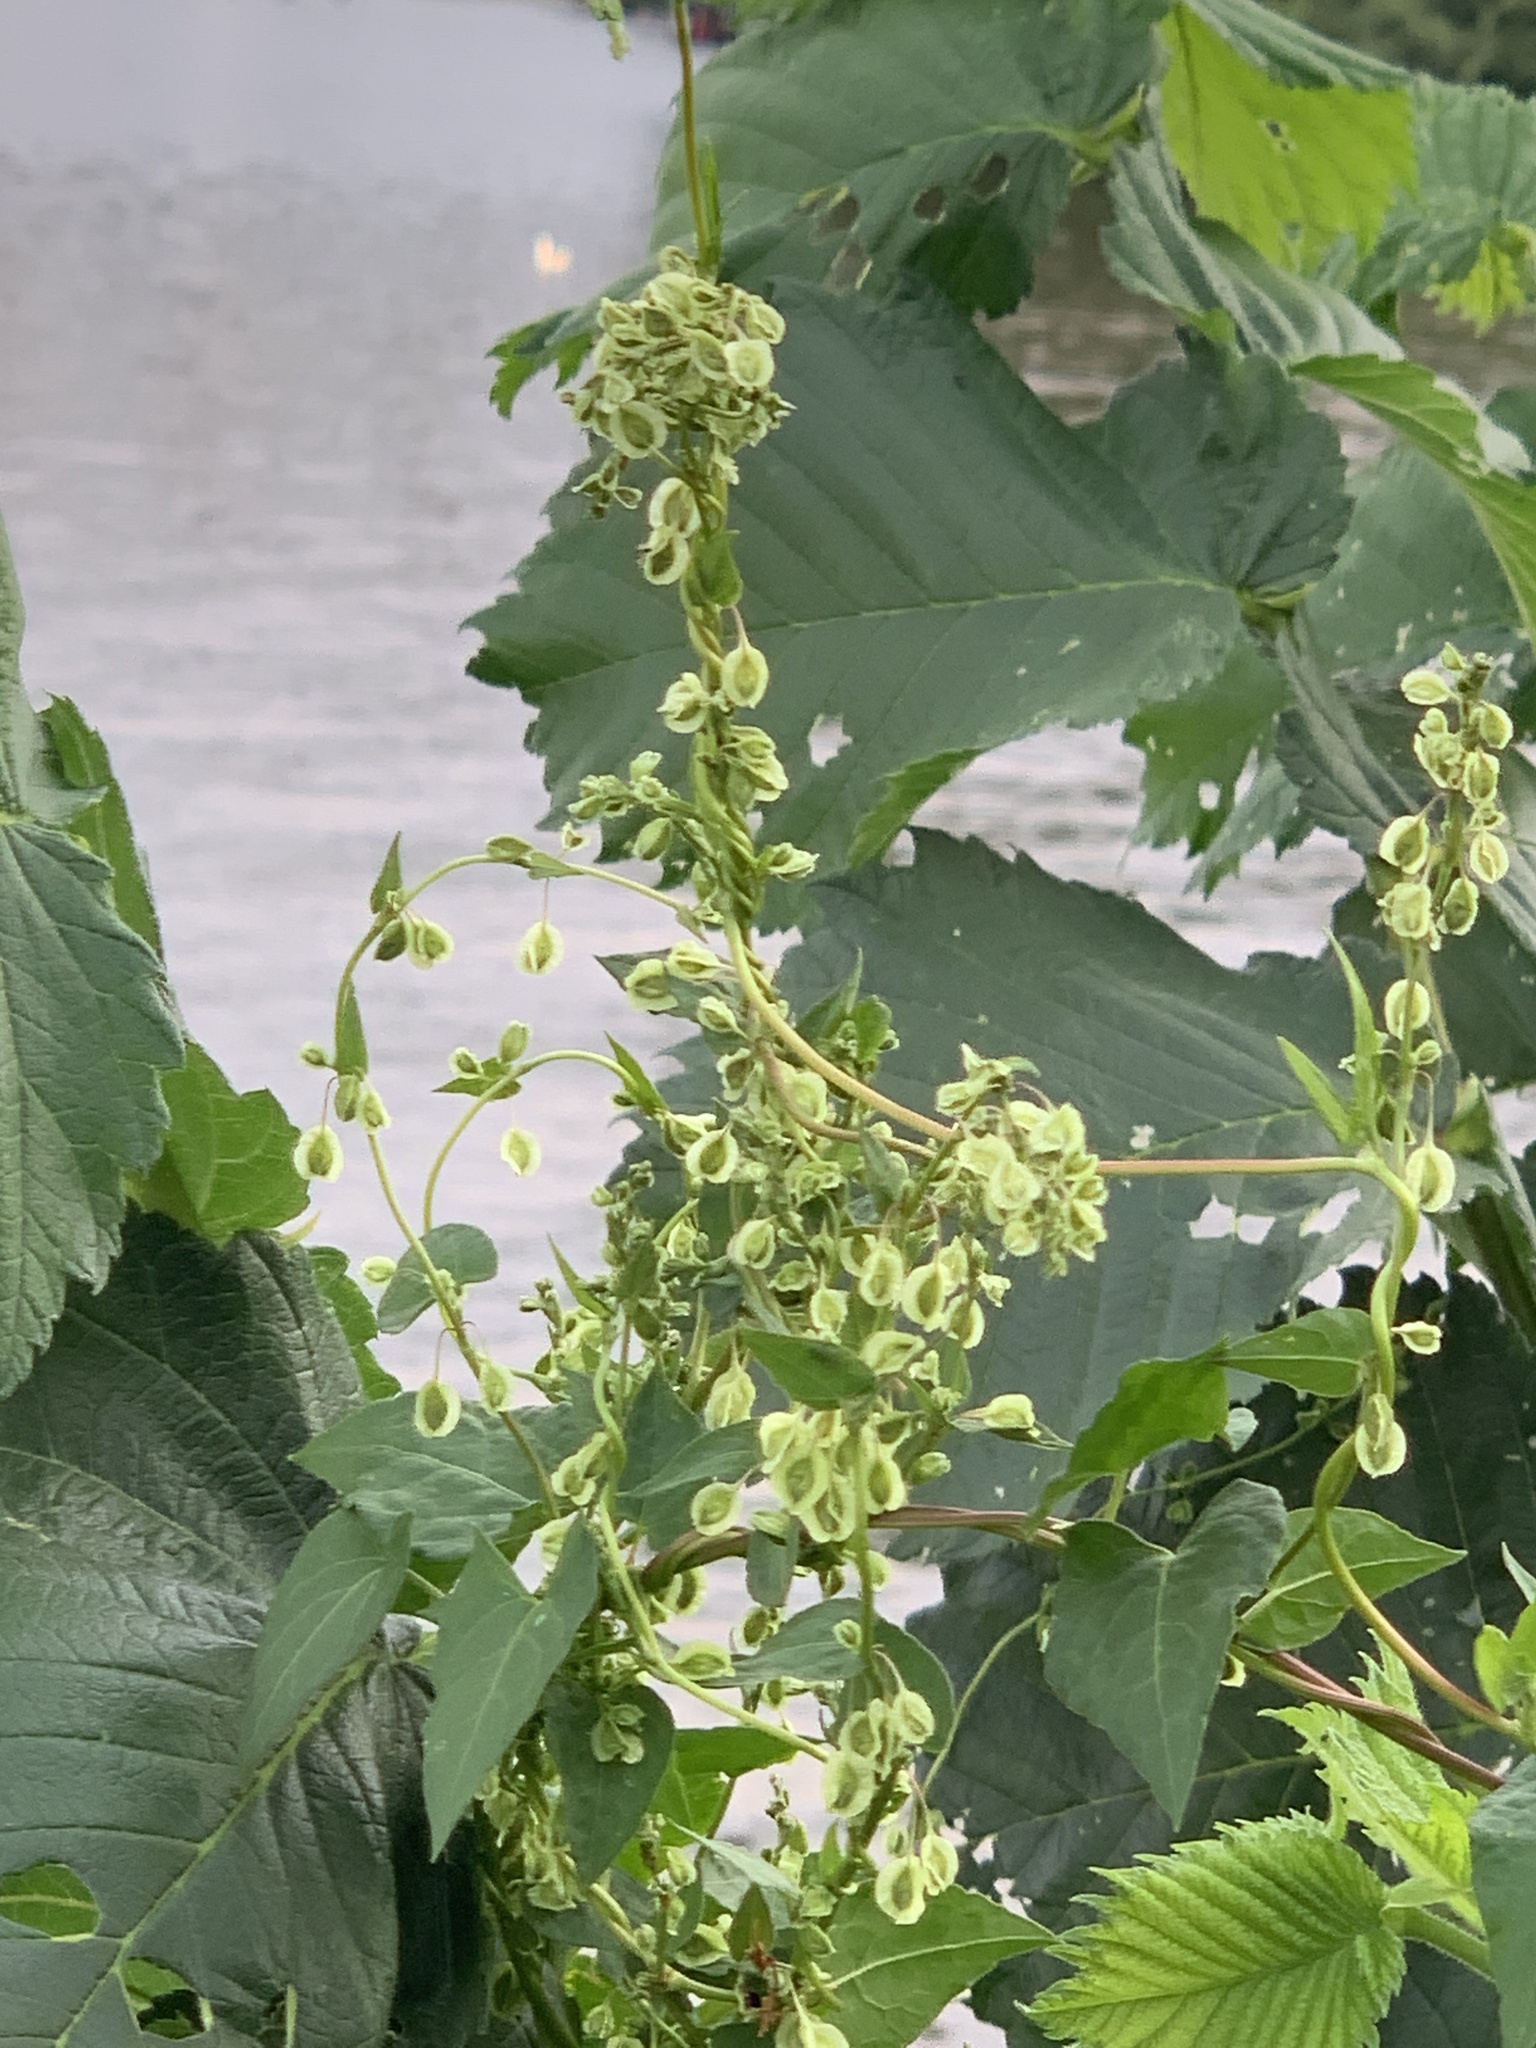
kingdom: Plantae
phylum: Tracheophyta
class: Magnoliopsida
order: Caryophyllales
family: Polygonaceae
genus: Fallopia
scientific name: Fallopia dumetorum
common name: Copse-bindweed
